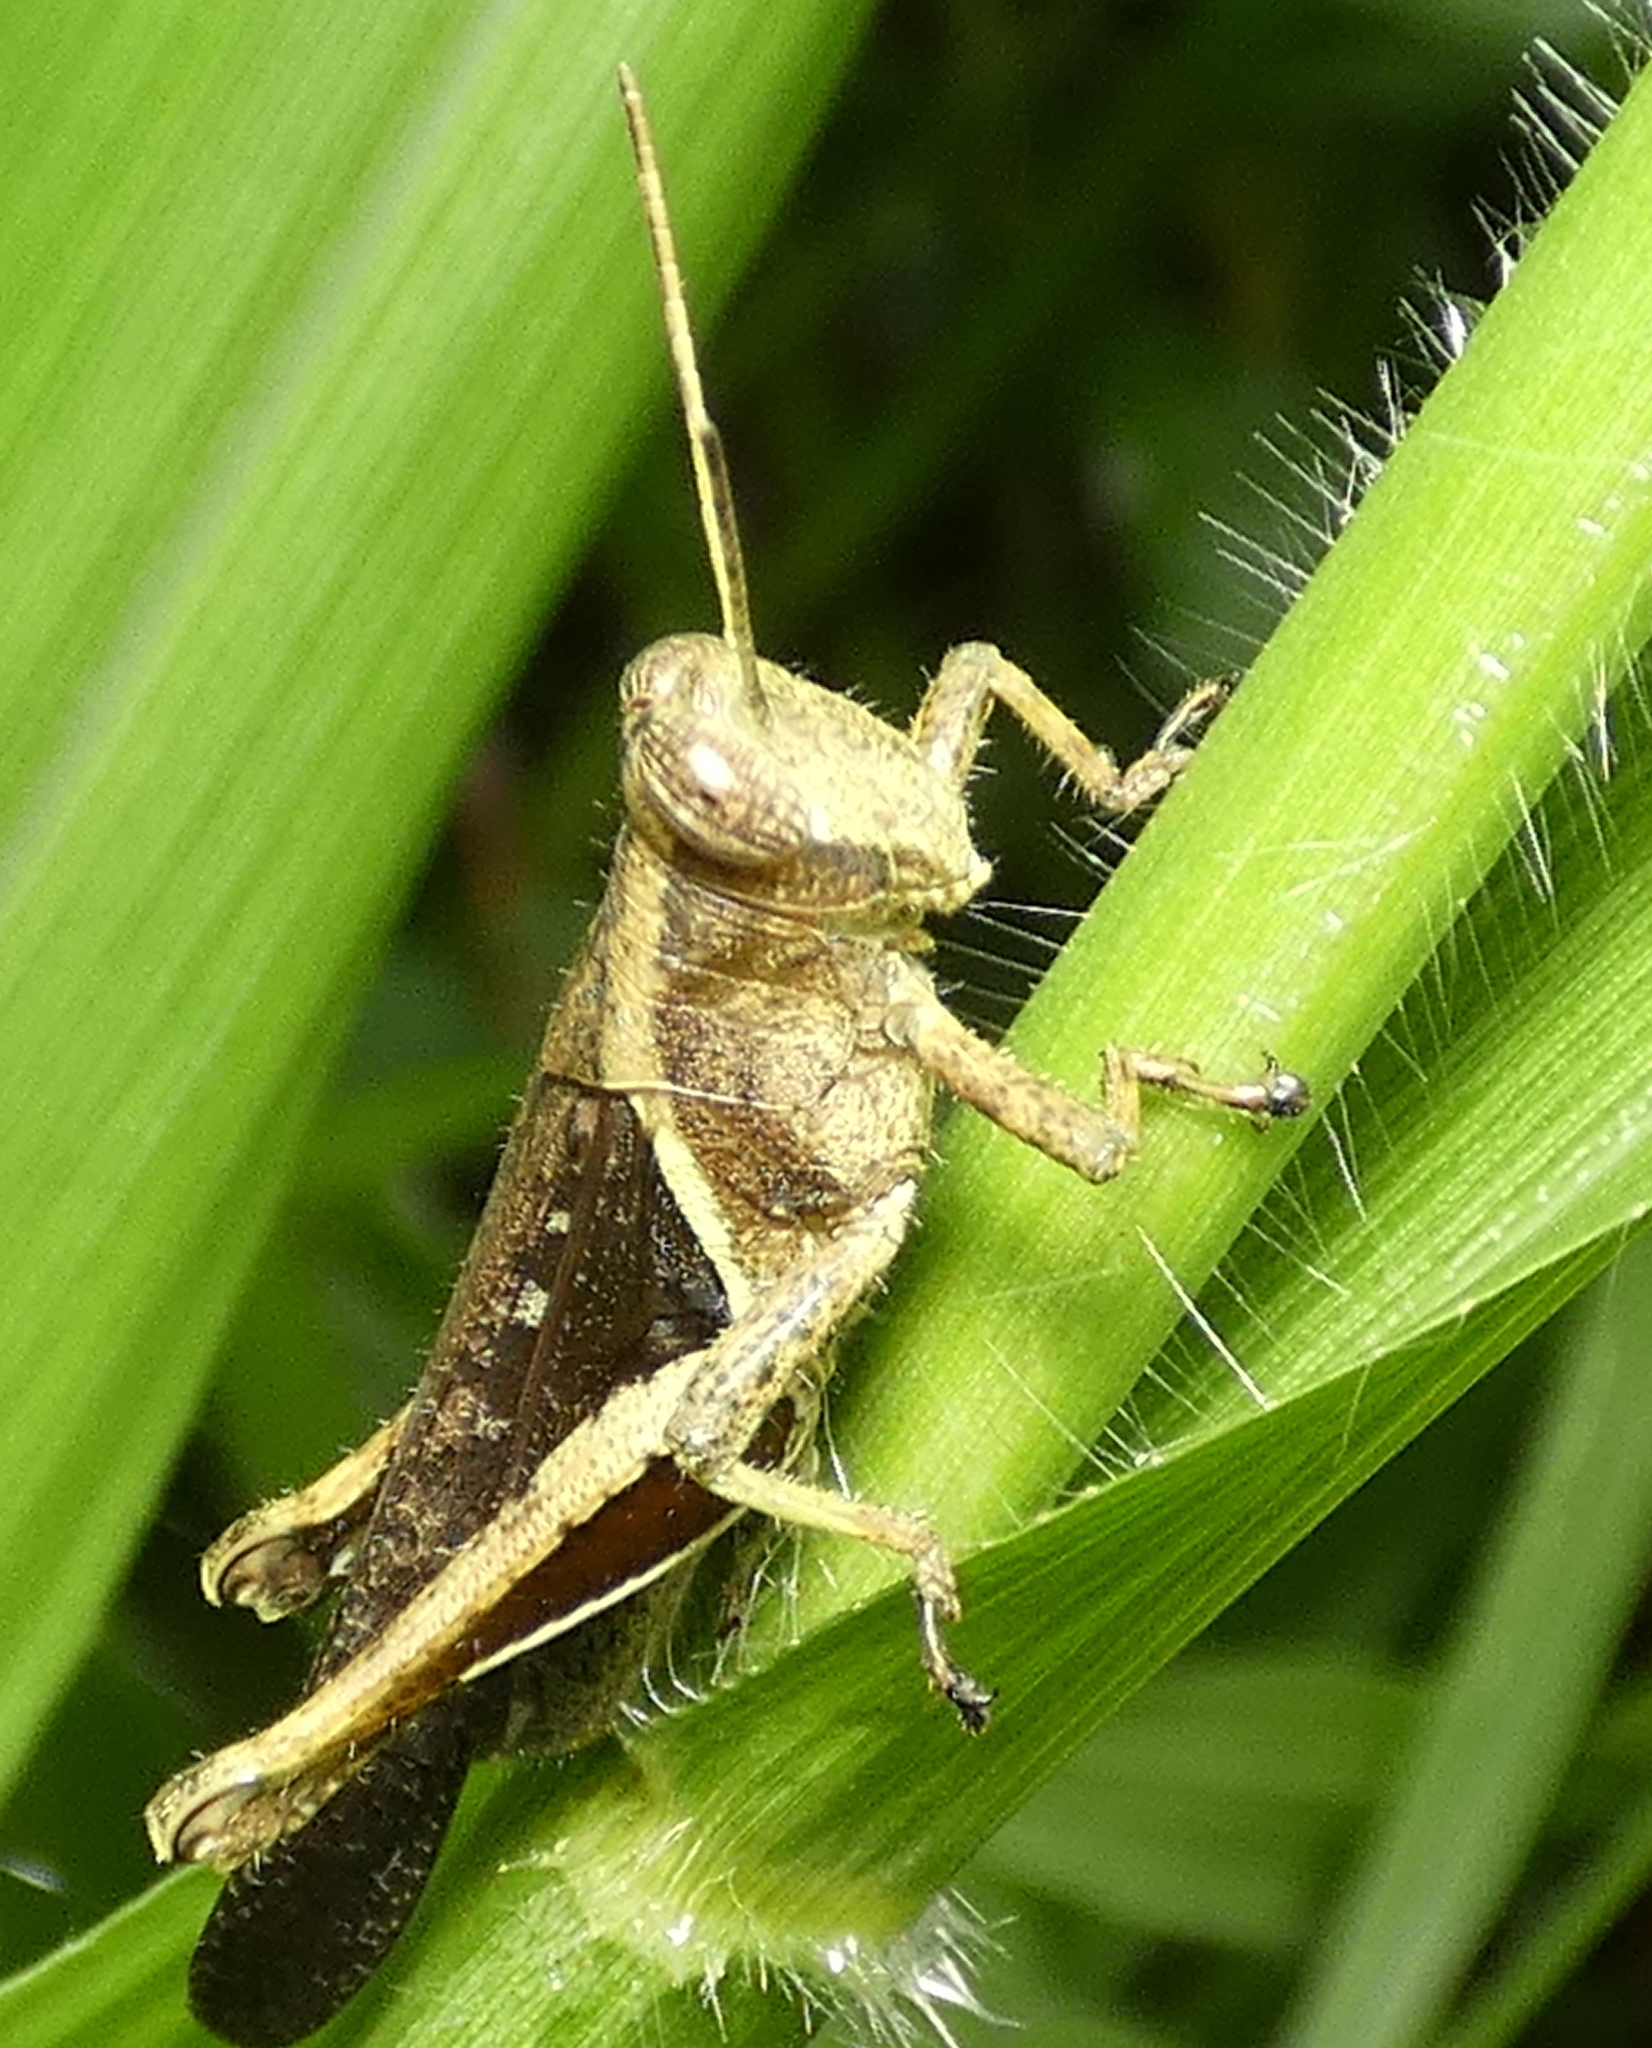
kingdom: Animalia
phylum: Arthropoda
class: Insecta
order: Orthoptera
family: Acrididae
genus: Abracris
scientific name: Abracris flavolineata
